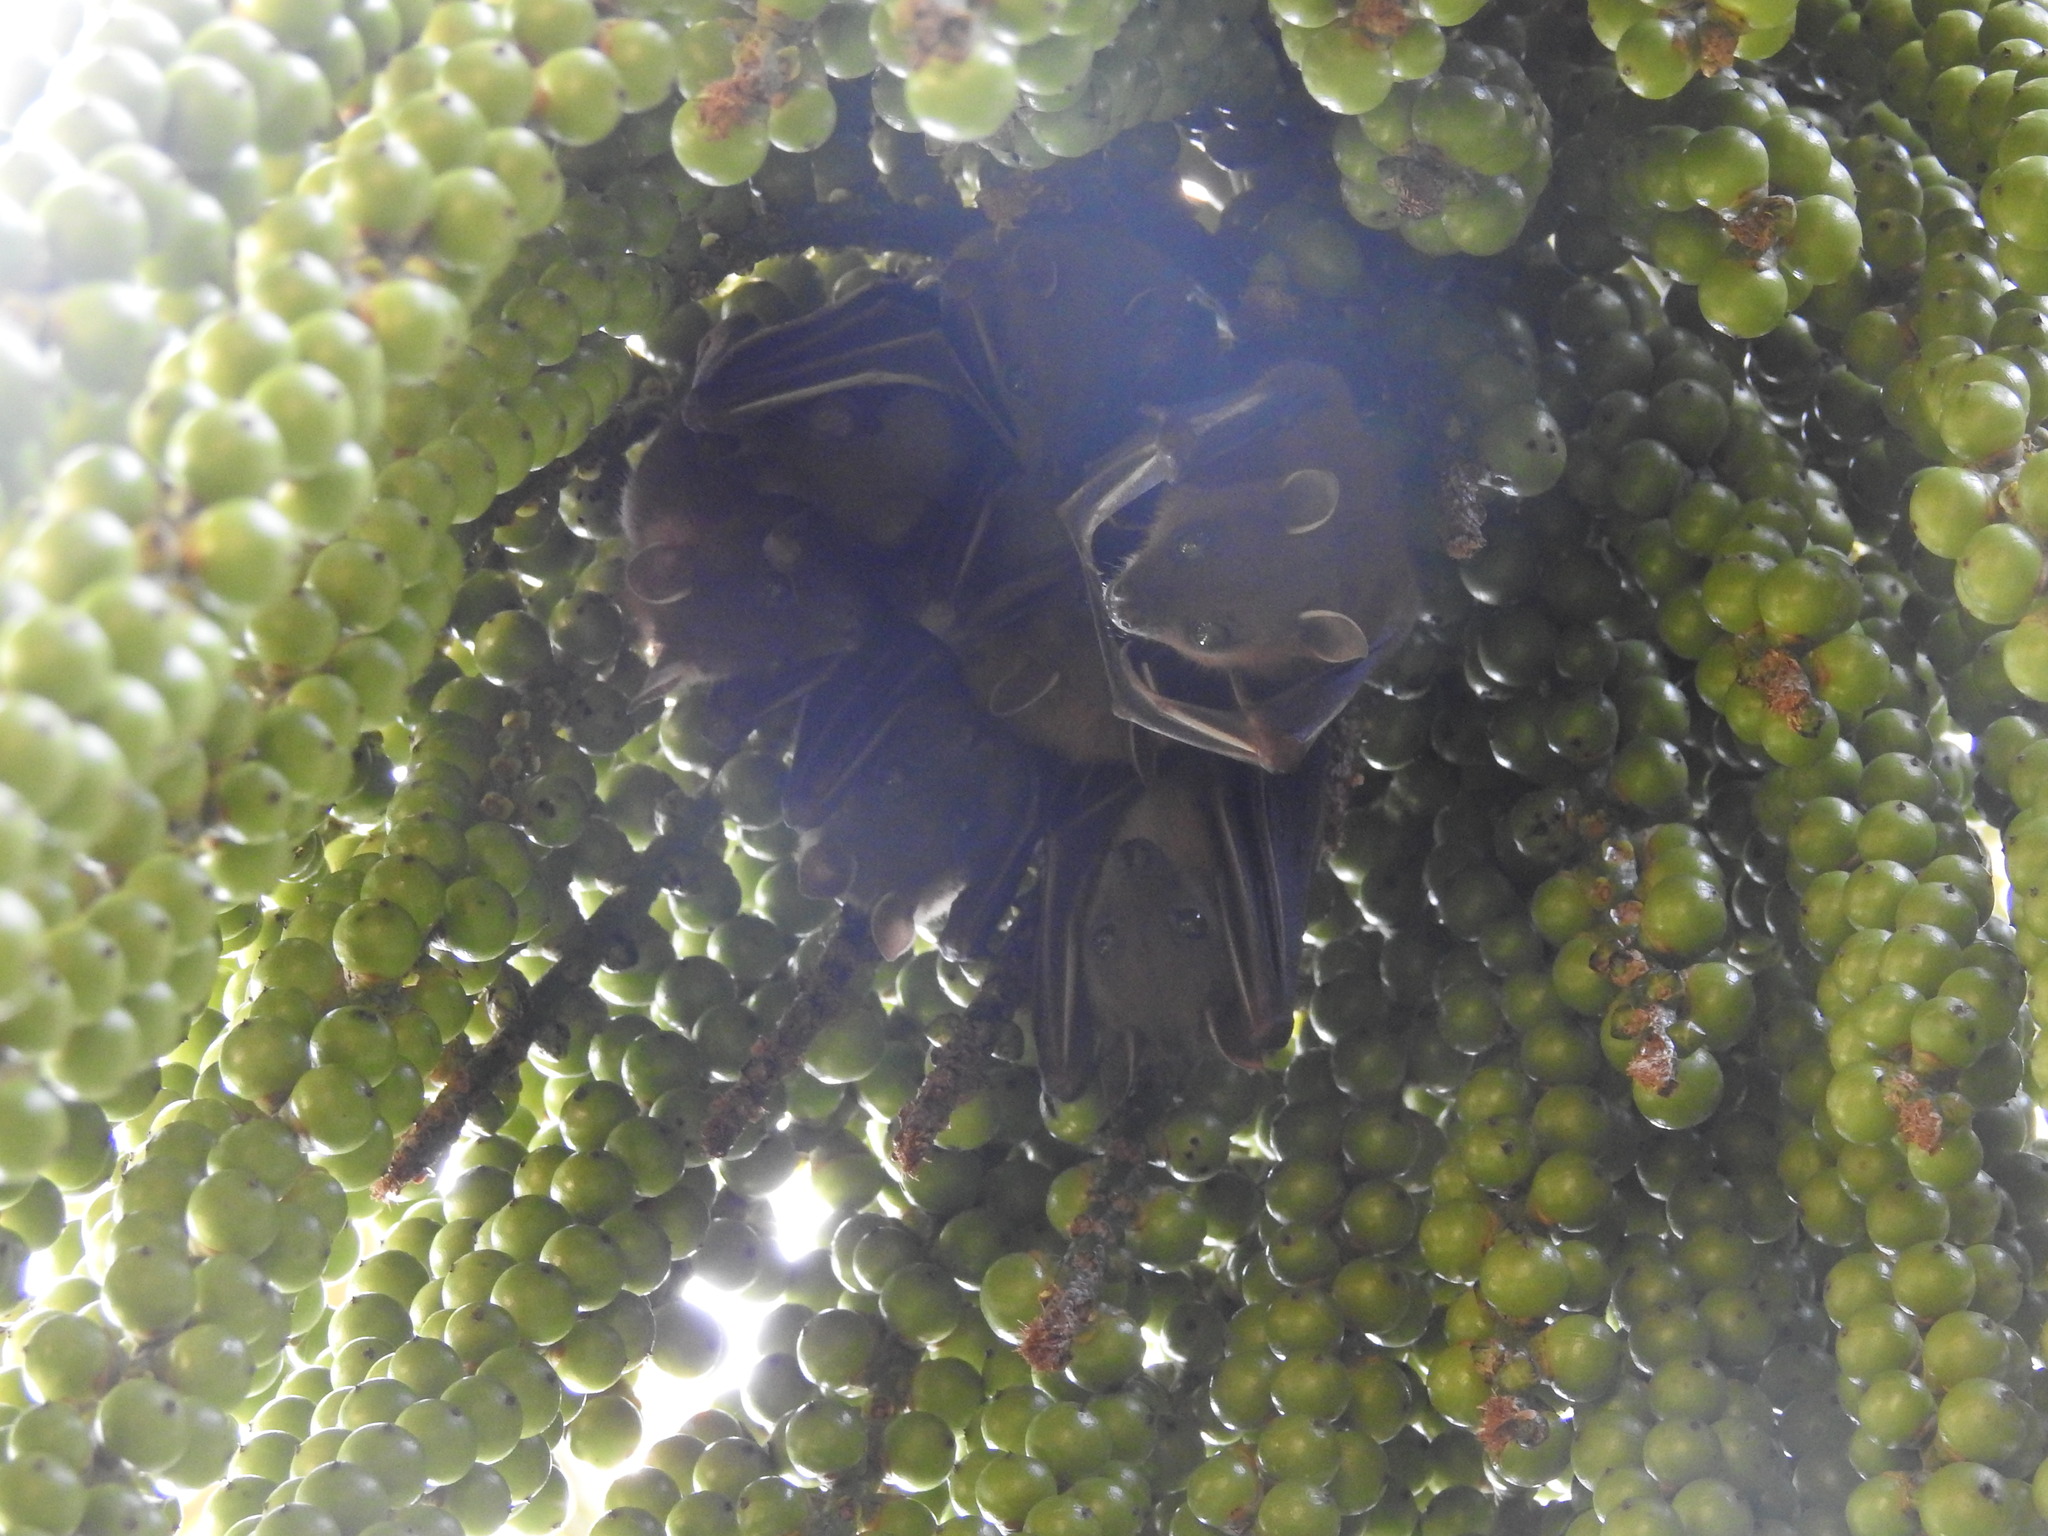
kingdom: Animalia
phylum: Chordata
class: Mammalia
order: Chiroptera
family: Pteropodidae
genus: Cynopterus
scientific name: Cynopterus sphinx
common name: Greater short-nosed fruit bat
